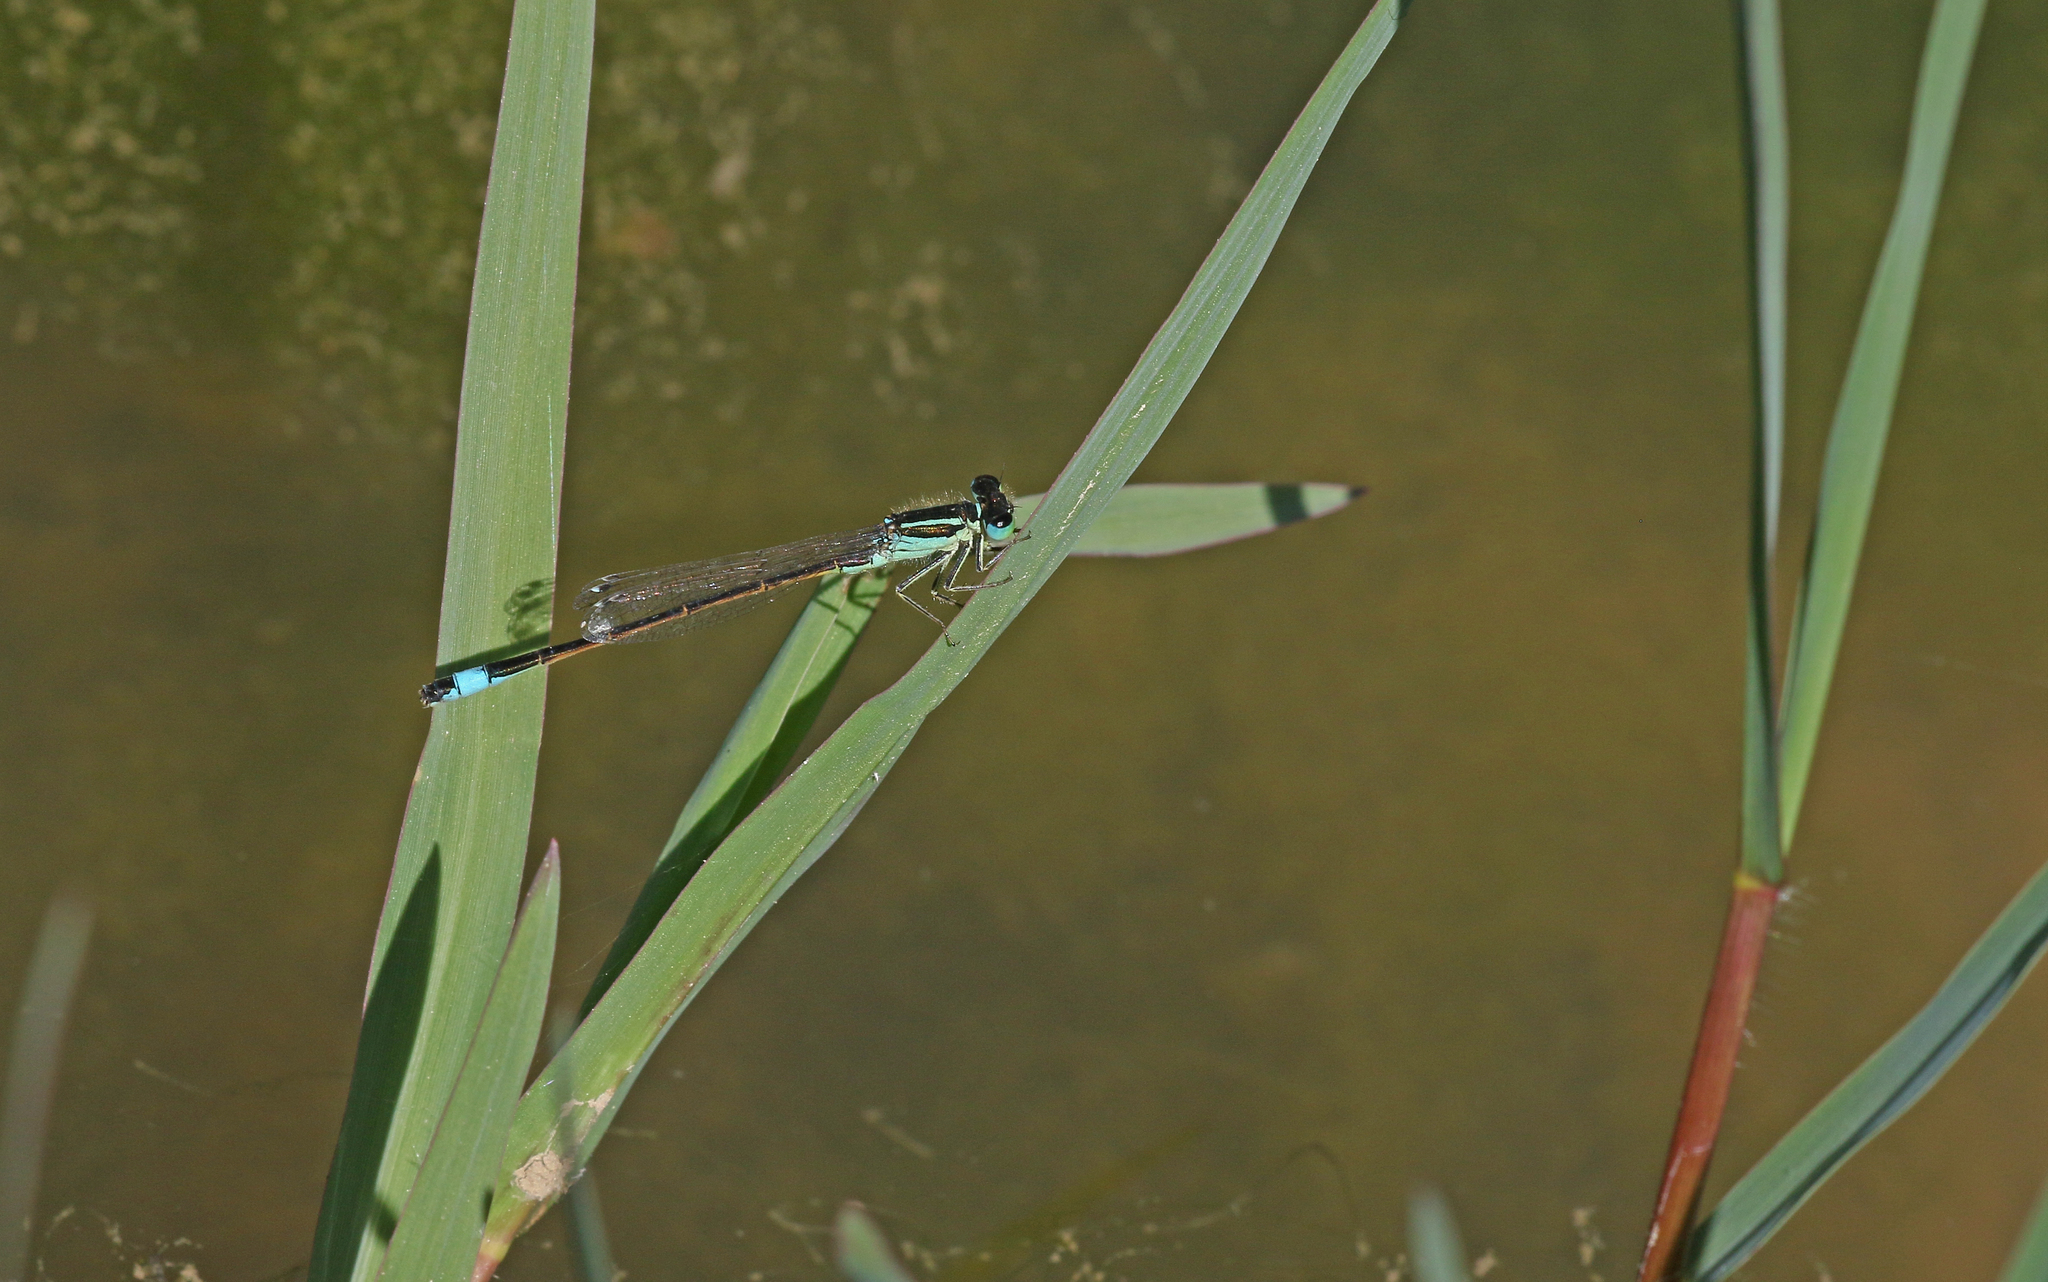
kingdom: Animalia
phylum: Arthropoda
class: Insecta
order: Odonata
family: Coenagrionidae
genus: Ischnura
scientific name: Ischnura graellsii
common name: Iberian bluetail
